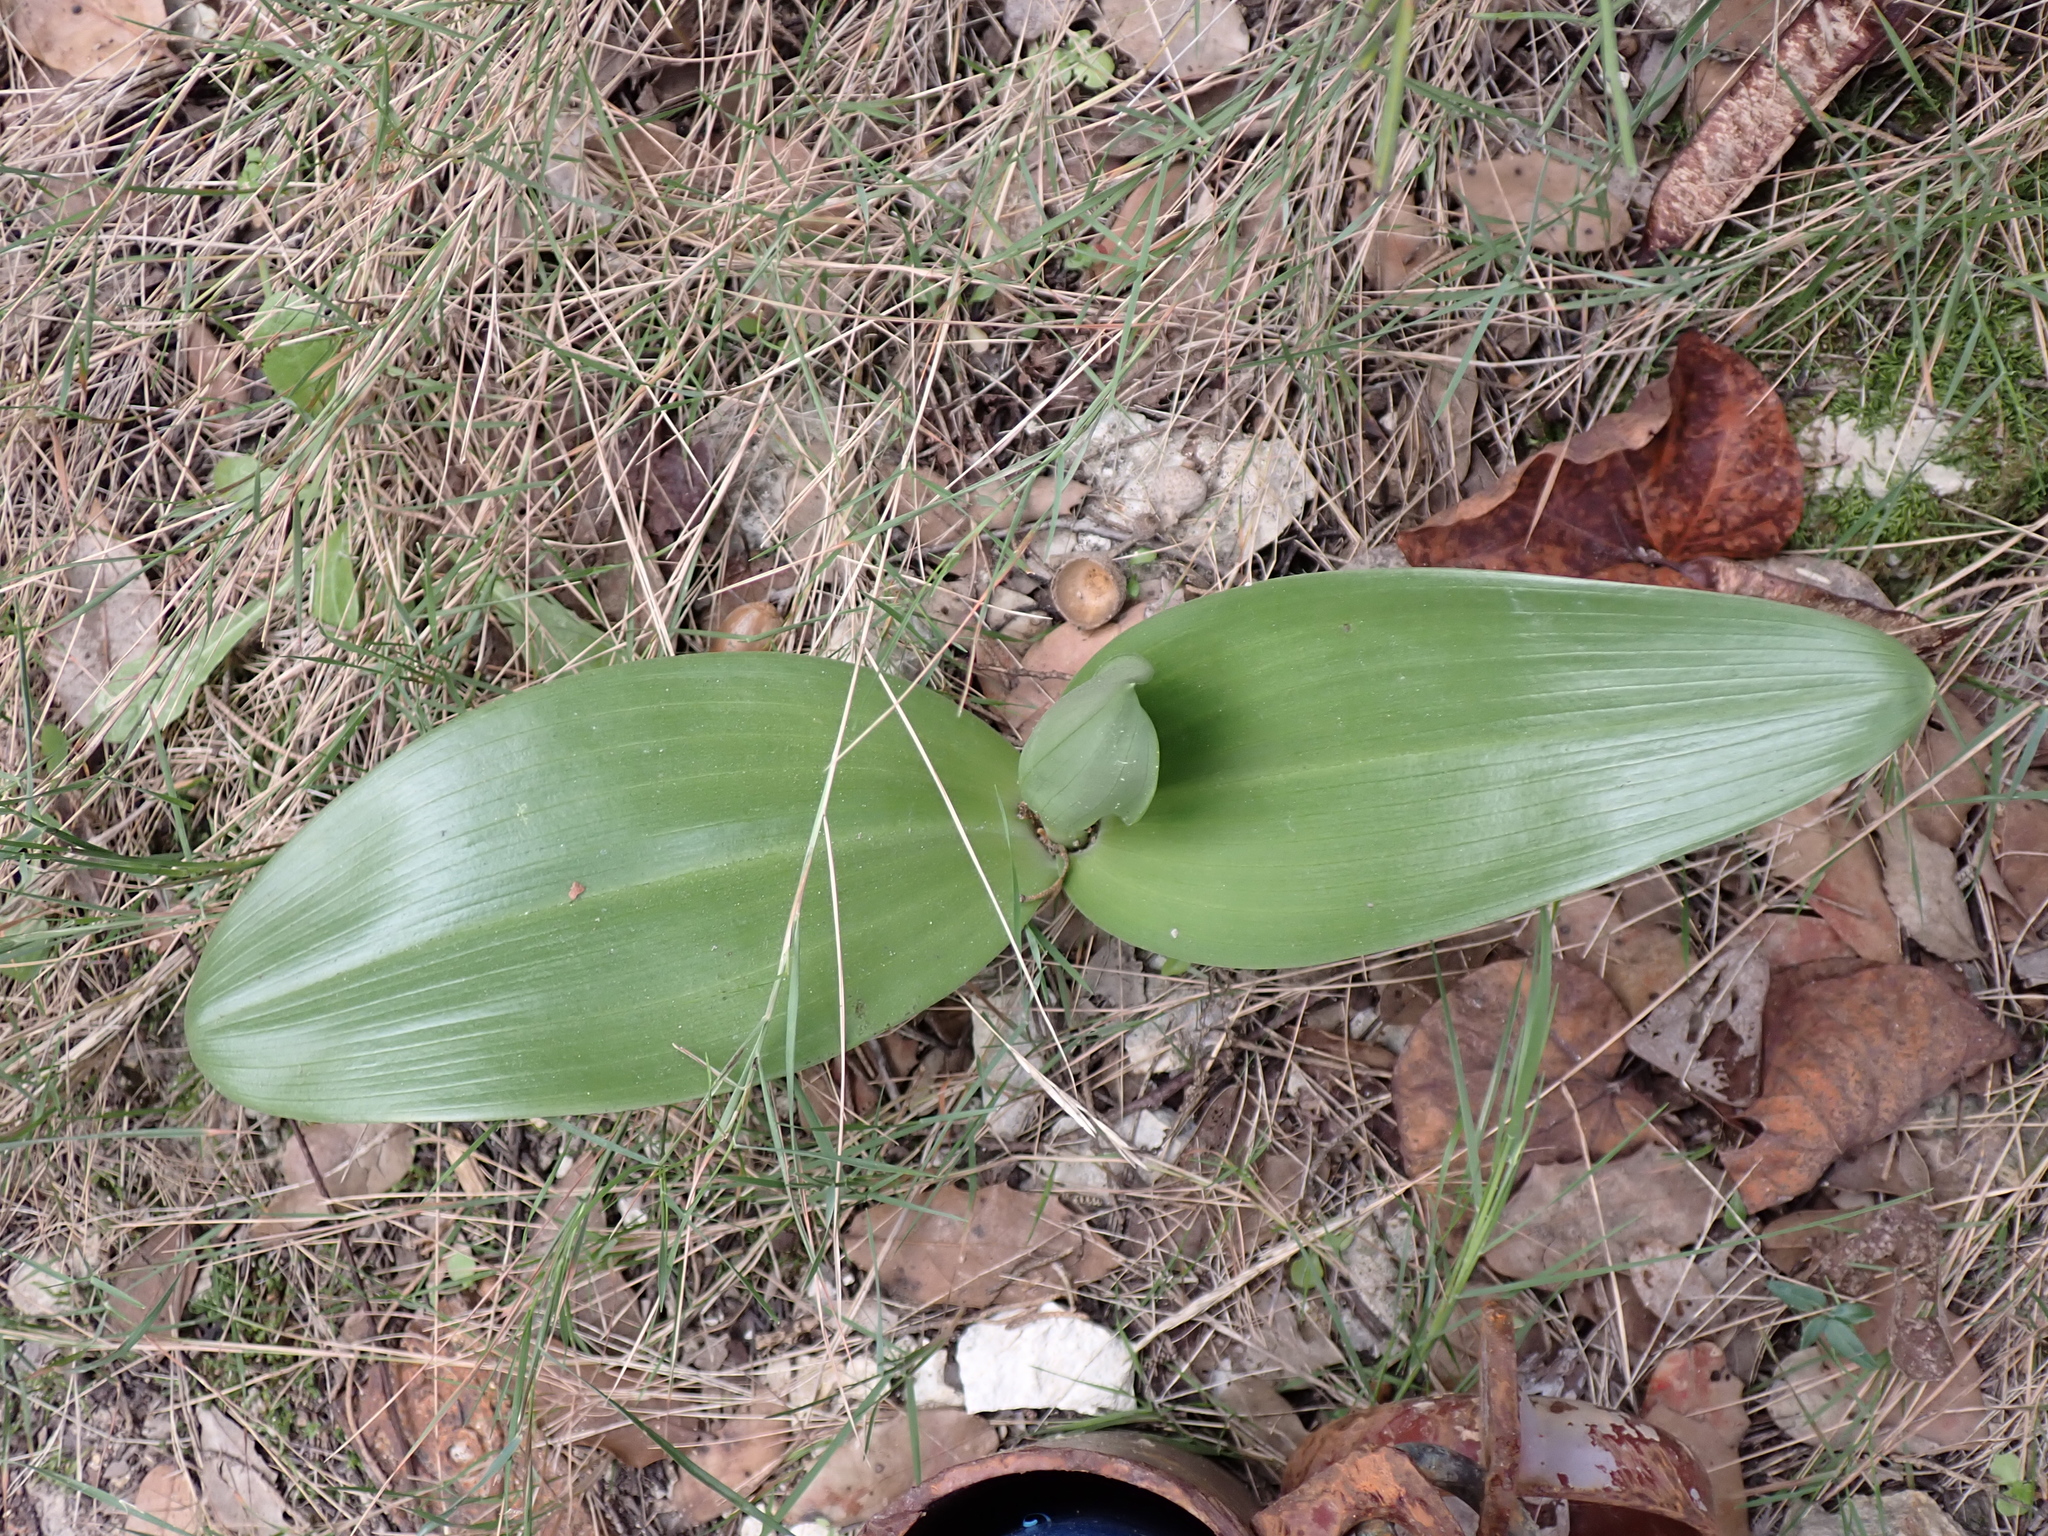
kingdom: Plantae
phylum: Tracheophyta
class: Liliopsida
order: Asparagales
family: Orchidaceae
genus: Himantoglossum
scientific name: Himantoglossum robertianum
